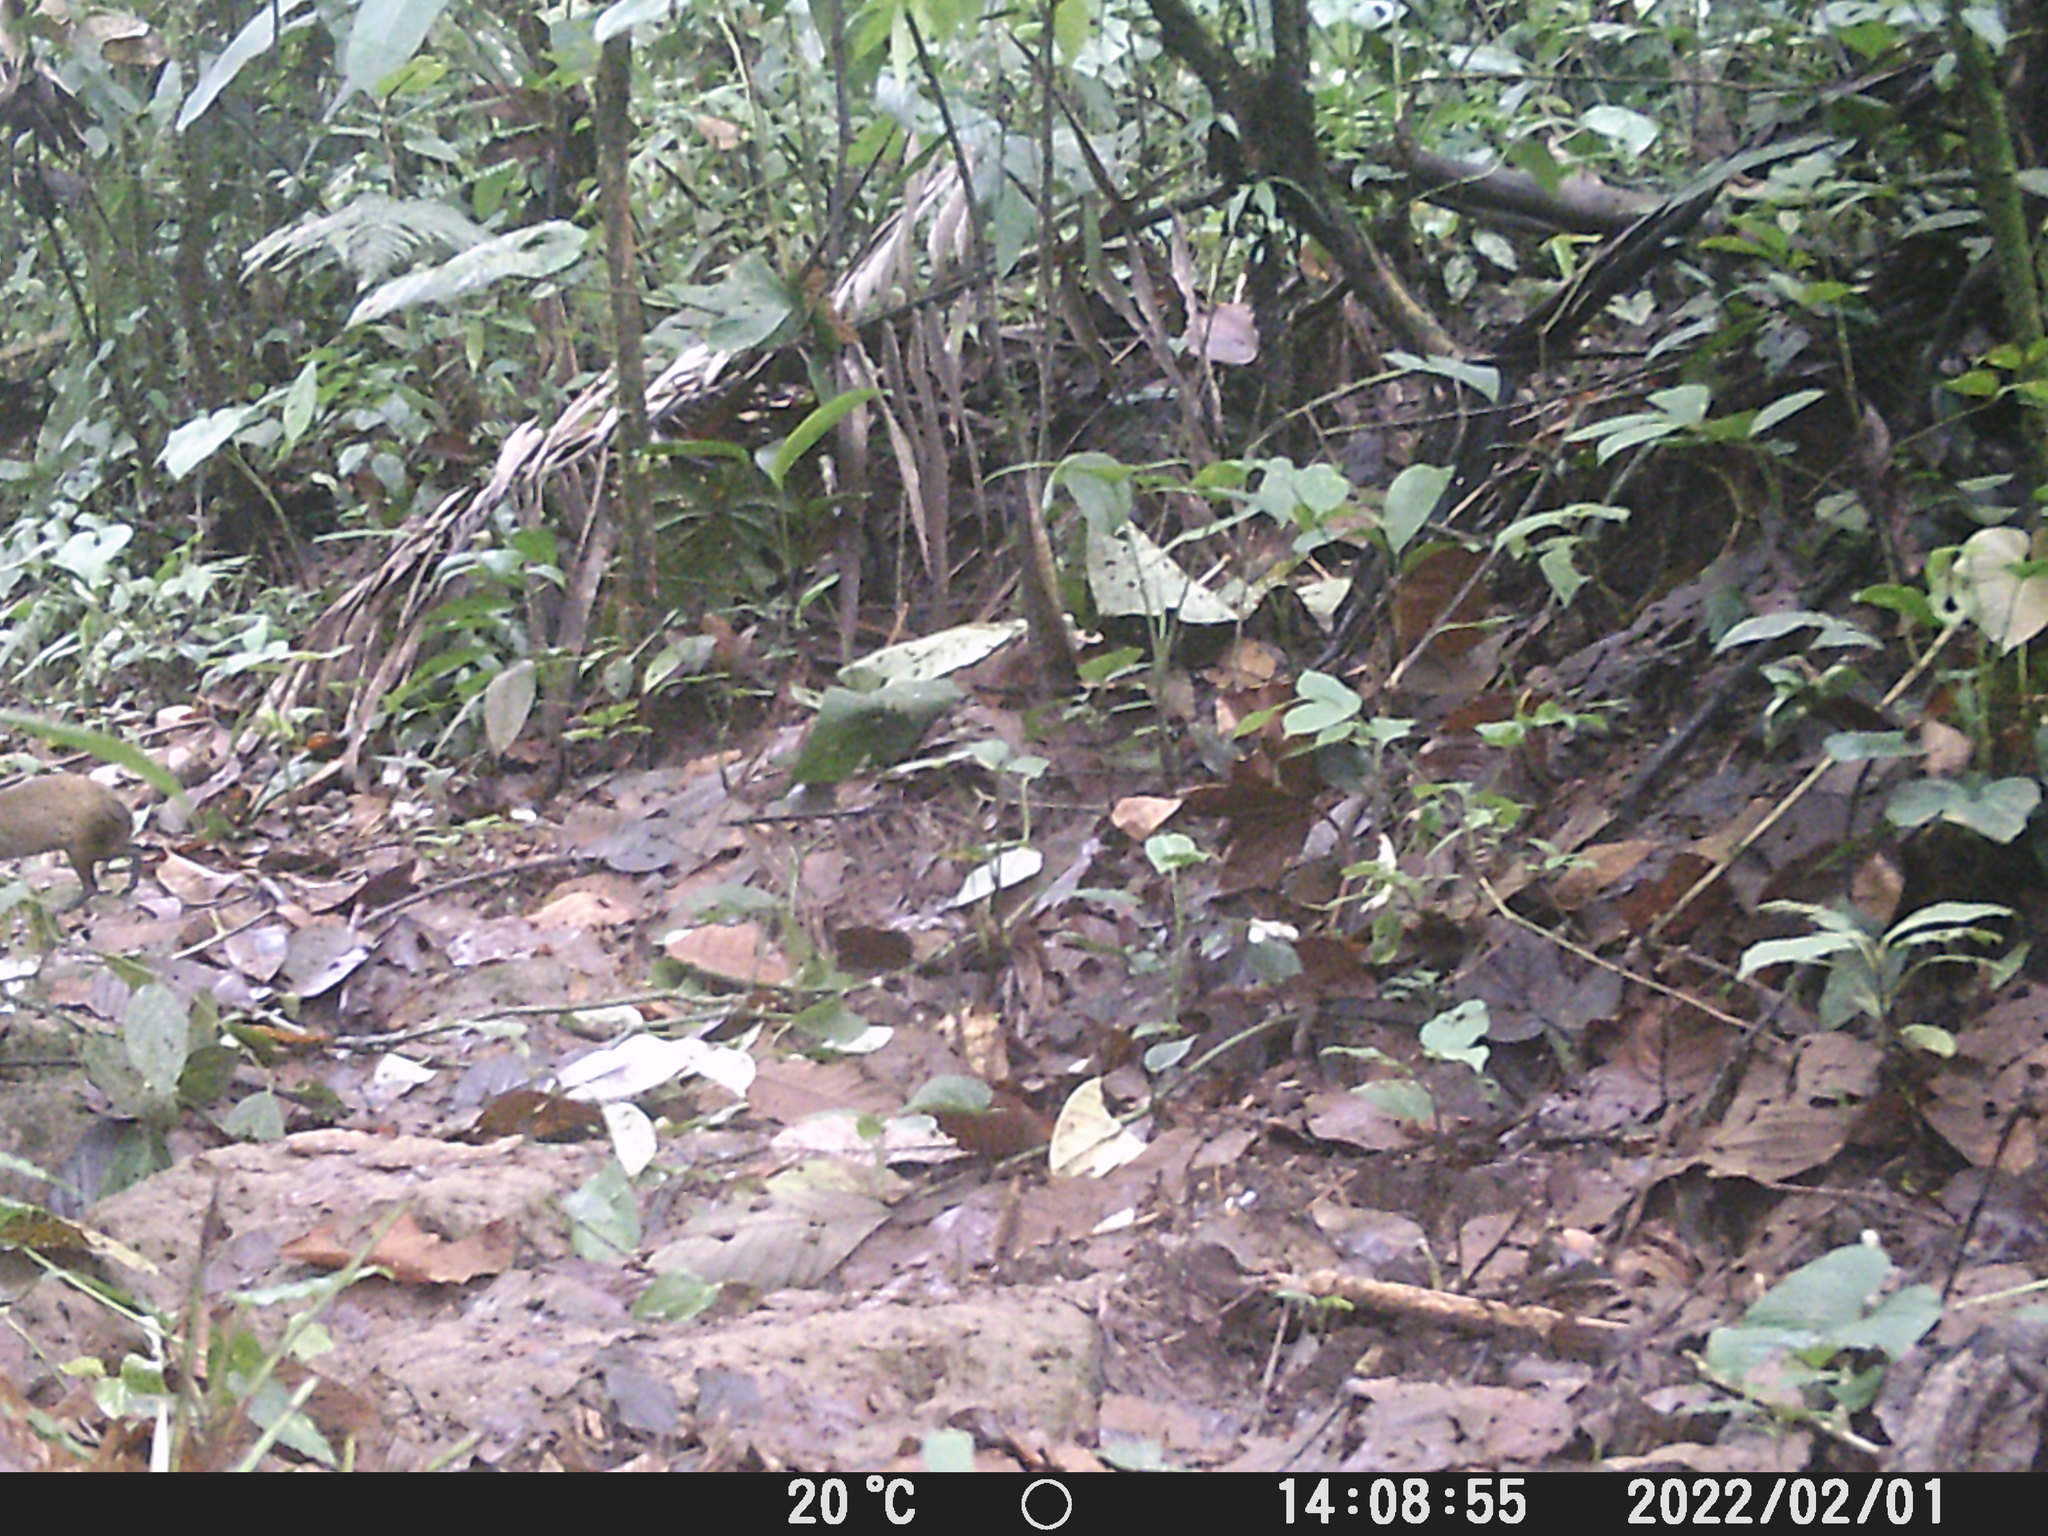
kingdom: Animalia
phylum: Chordata
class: Mammalia
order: Rodentia
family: Dasyproctidae
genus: Dasyprocta
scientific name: Dasyprocta punctata
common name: Central american agouti
